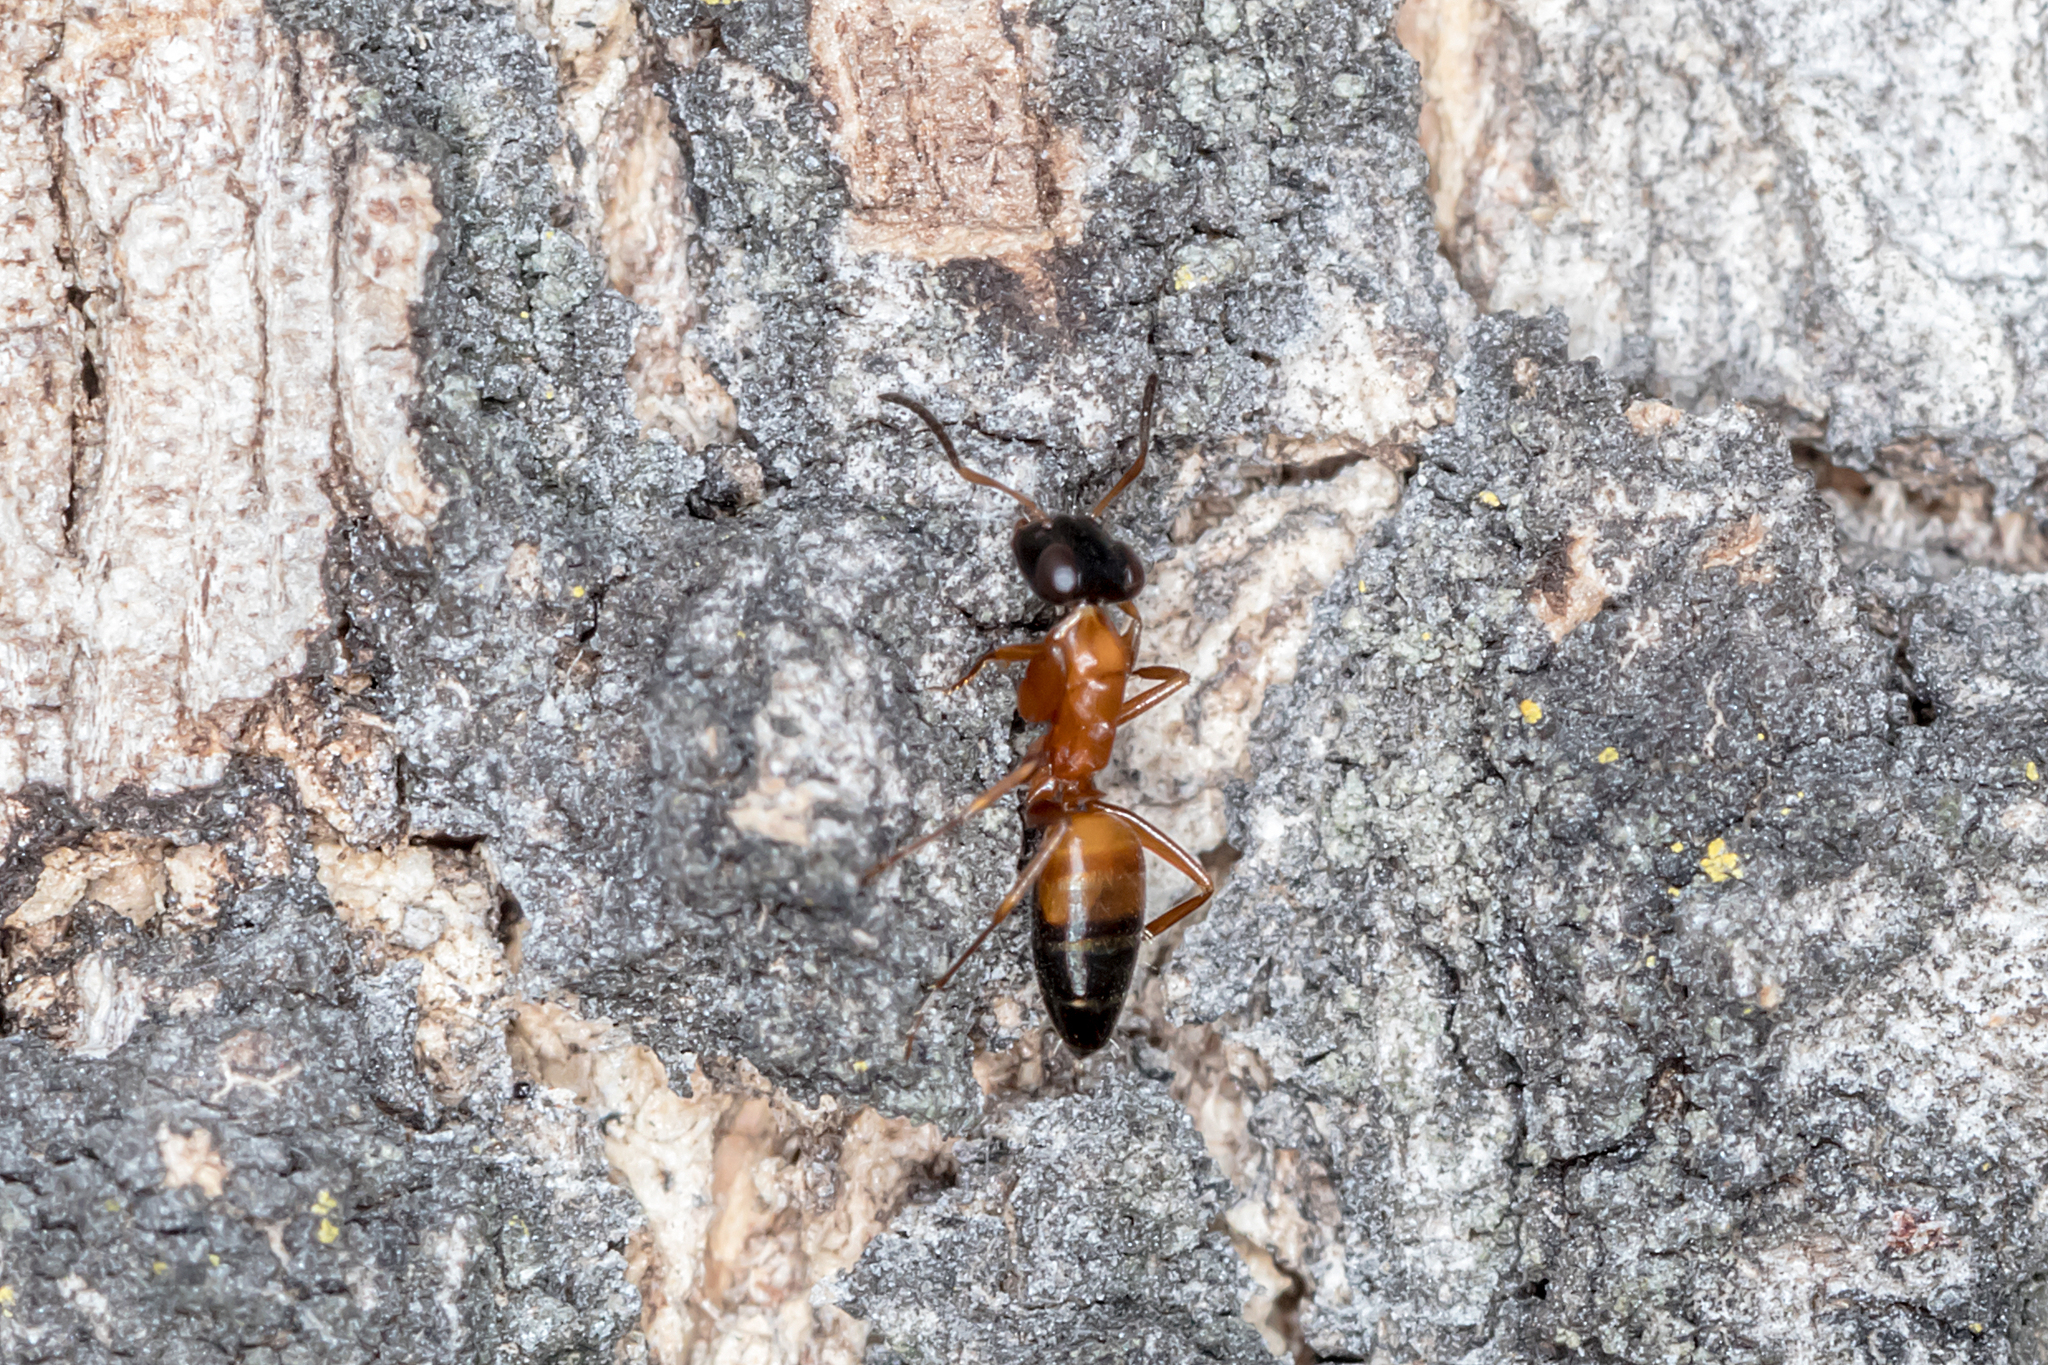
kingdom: Animalia
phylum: Arthropoda
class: Insecta
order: Hymenoptera
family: Formicidae
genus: Opisthopsis
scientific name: Opisthopsis rufithorax
